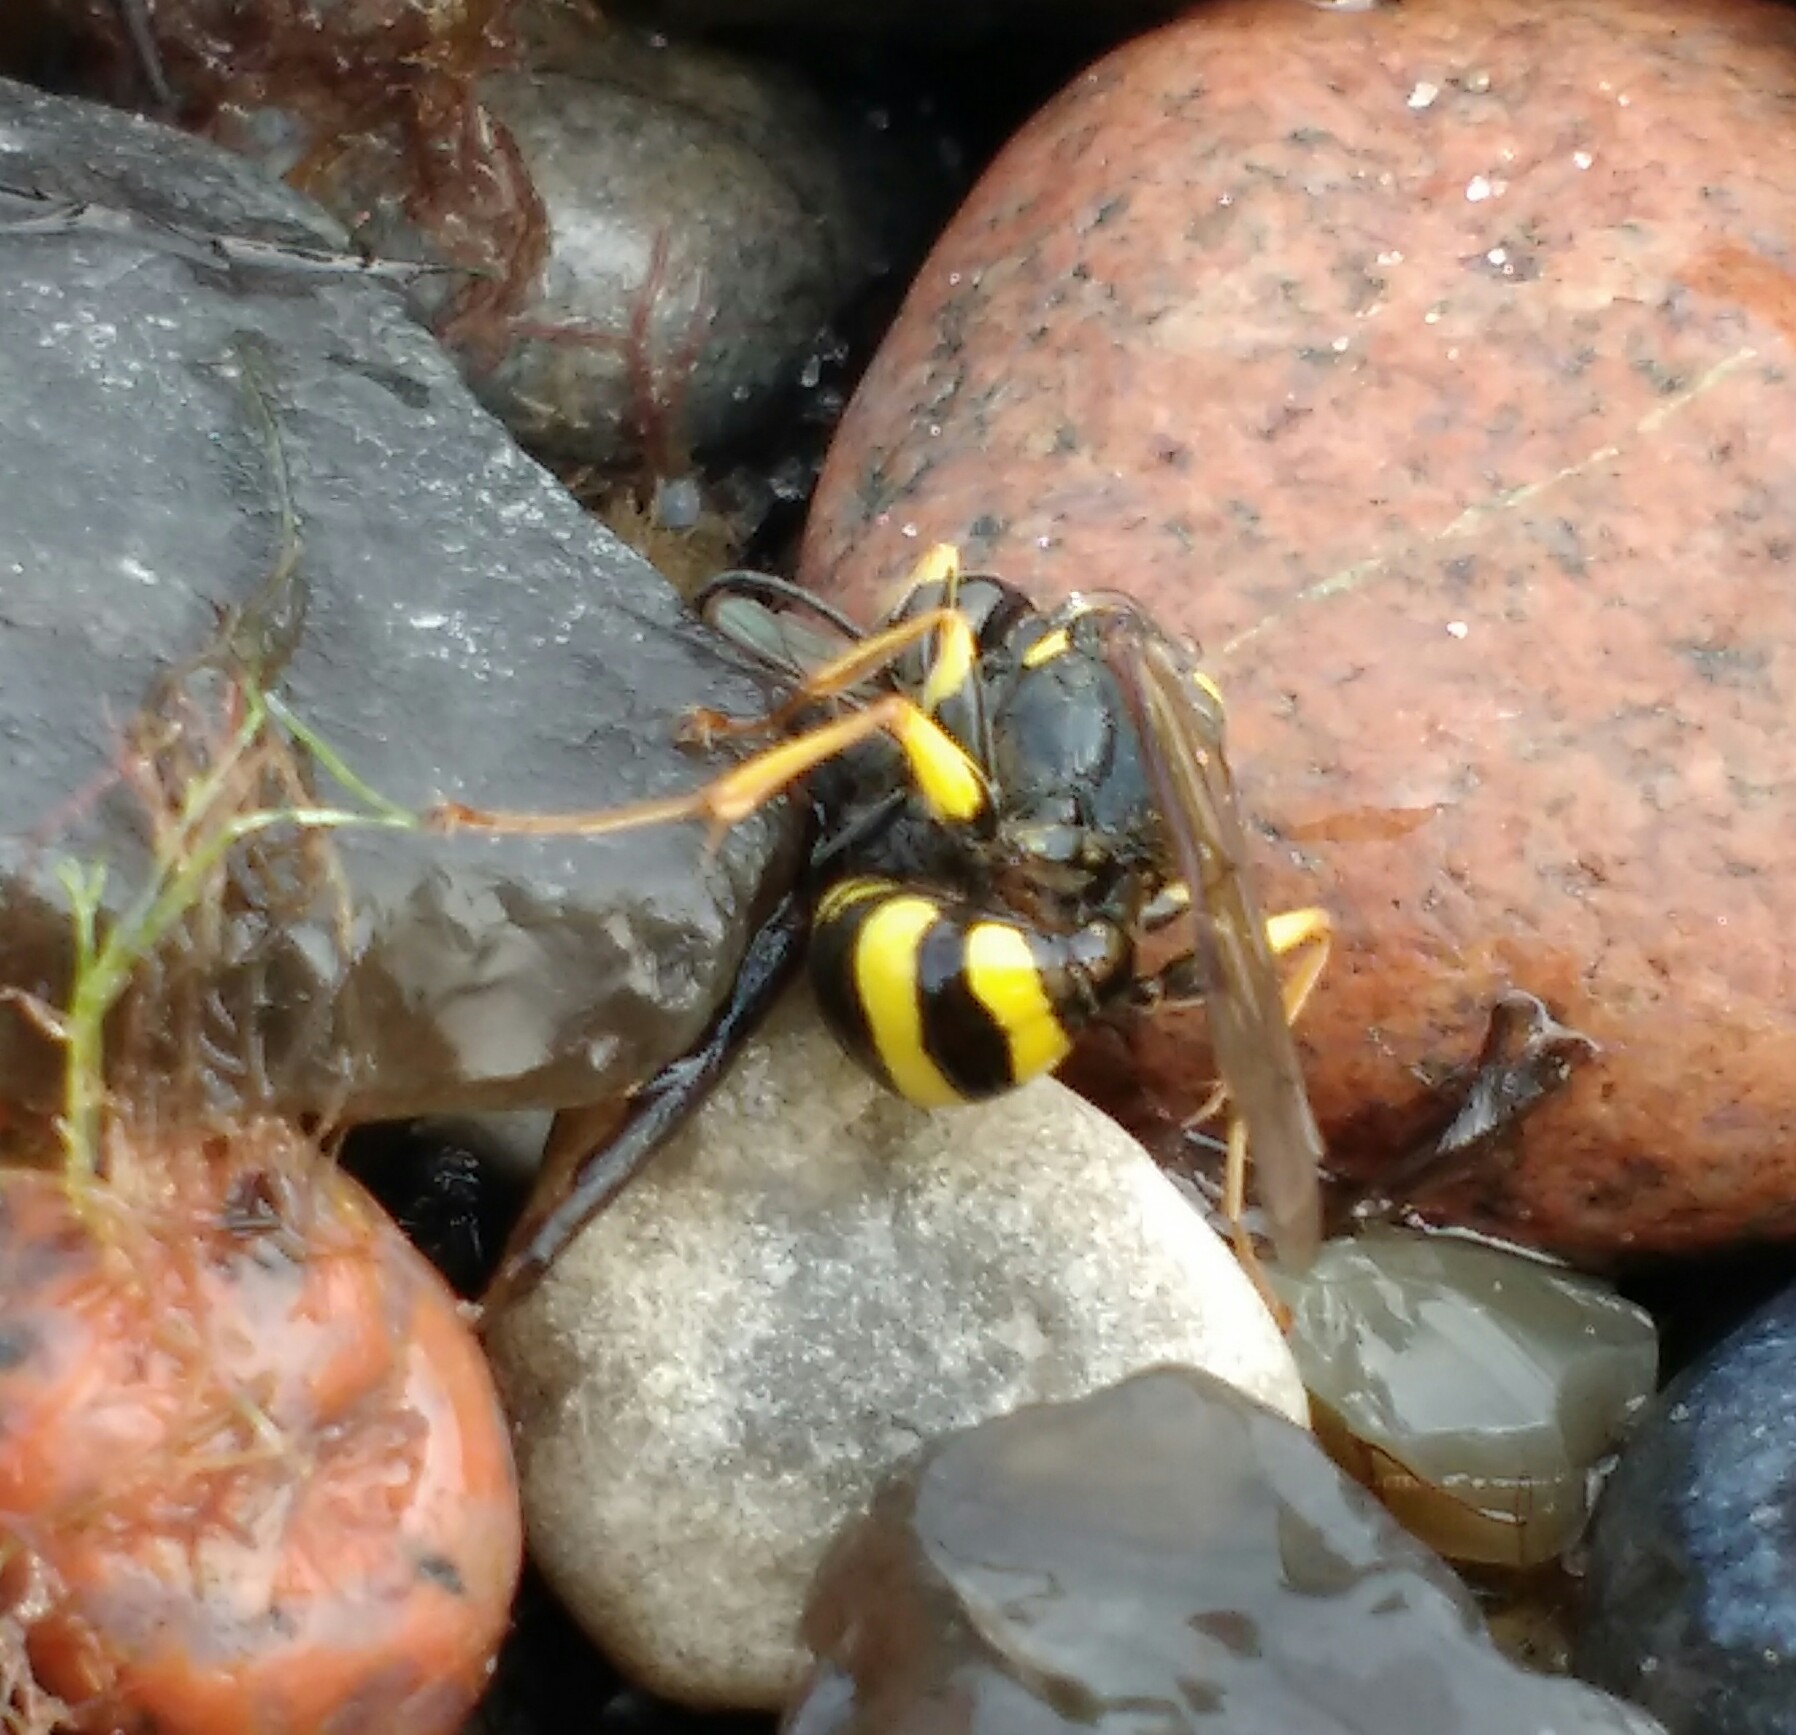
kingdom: Animalia
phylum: Arthropoda
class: Insecta
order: Hymenoptera
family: Crabronidae
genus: Mellinus
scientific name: Mellinus arvensis
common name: Field digger wasp
